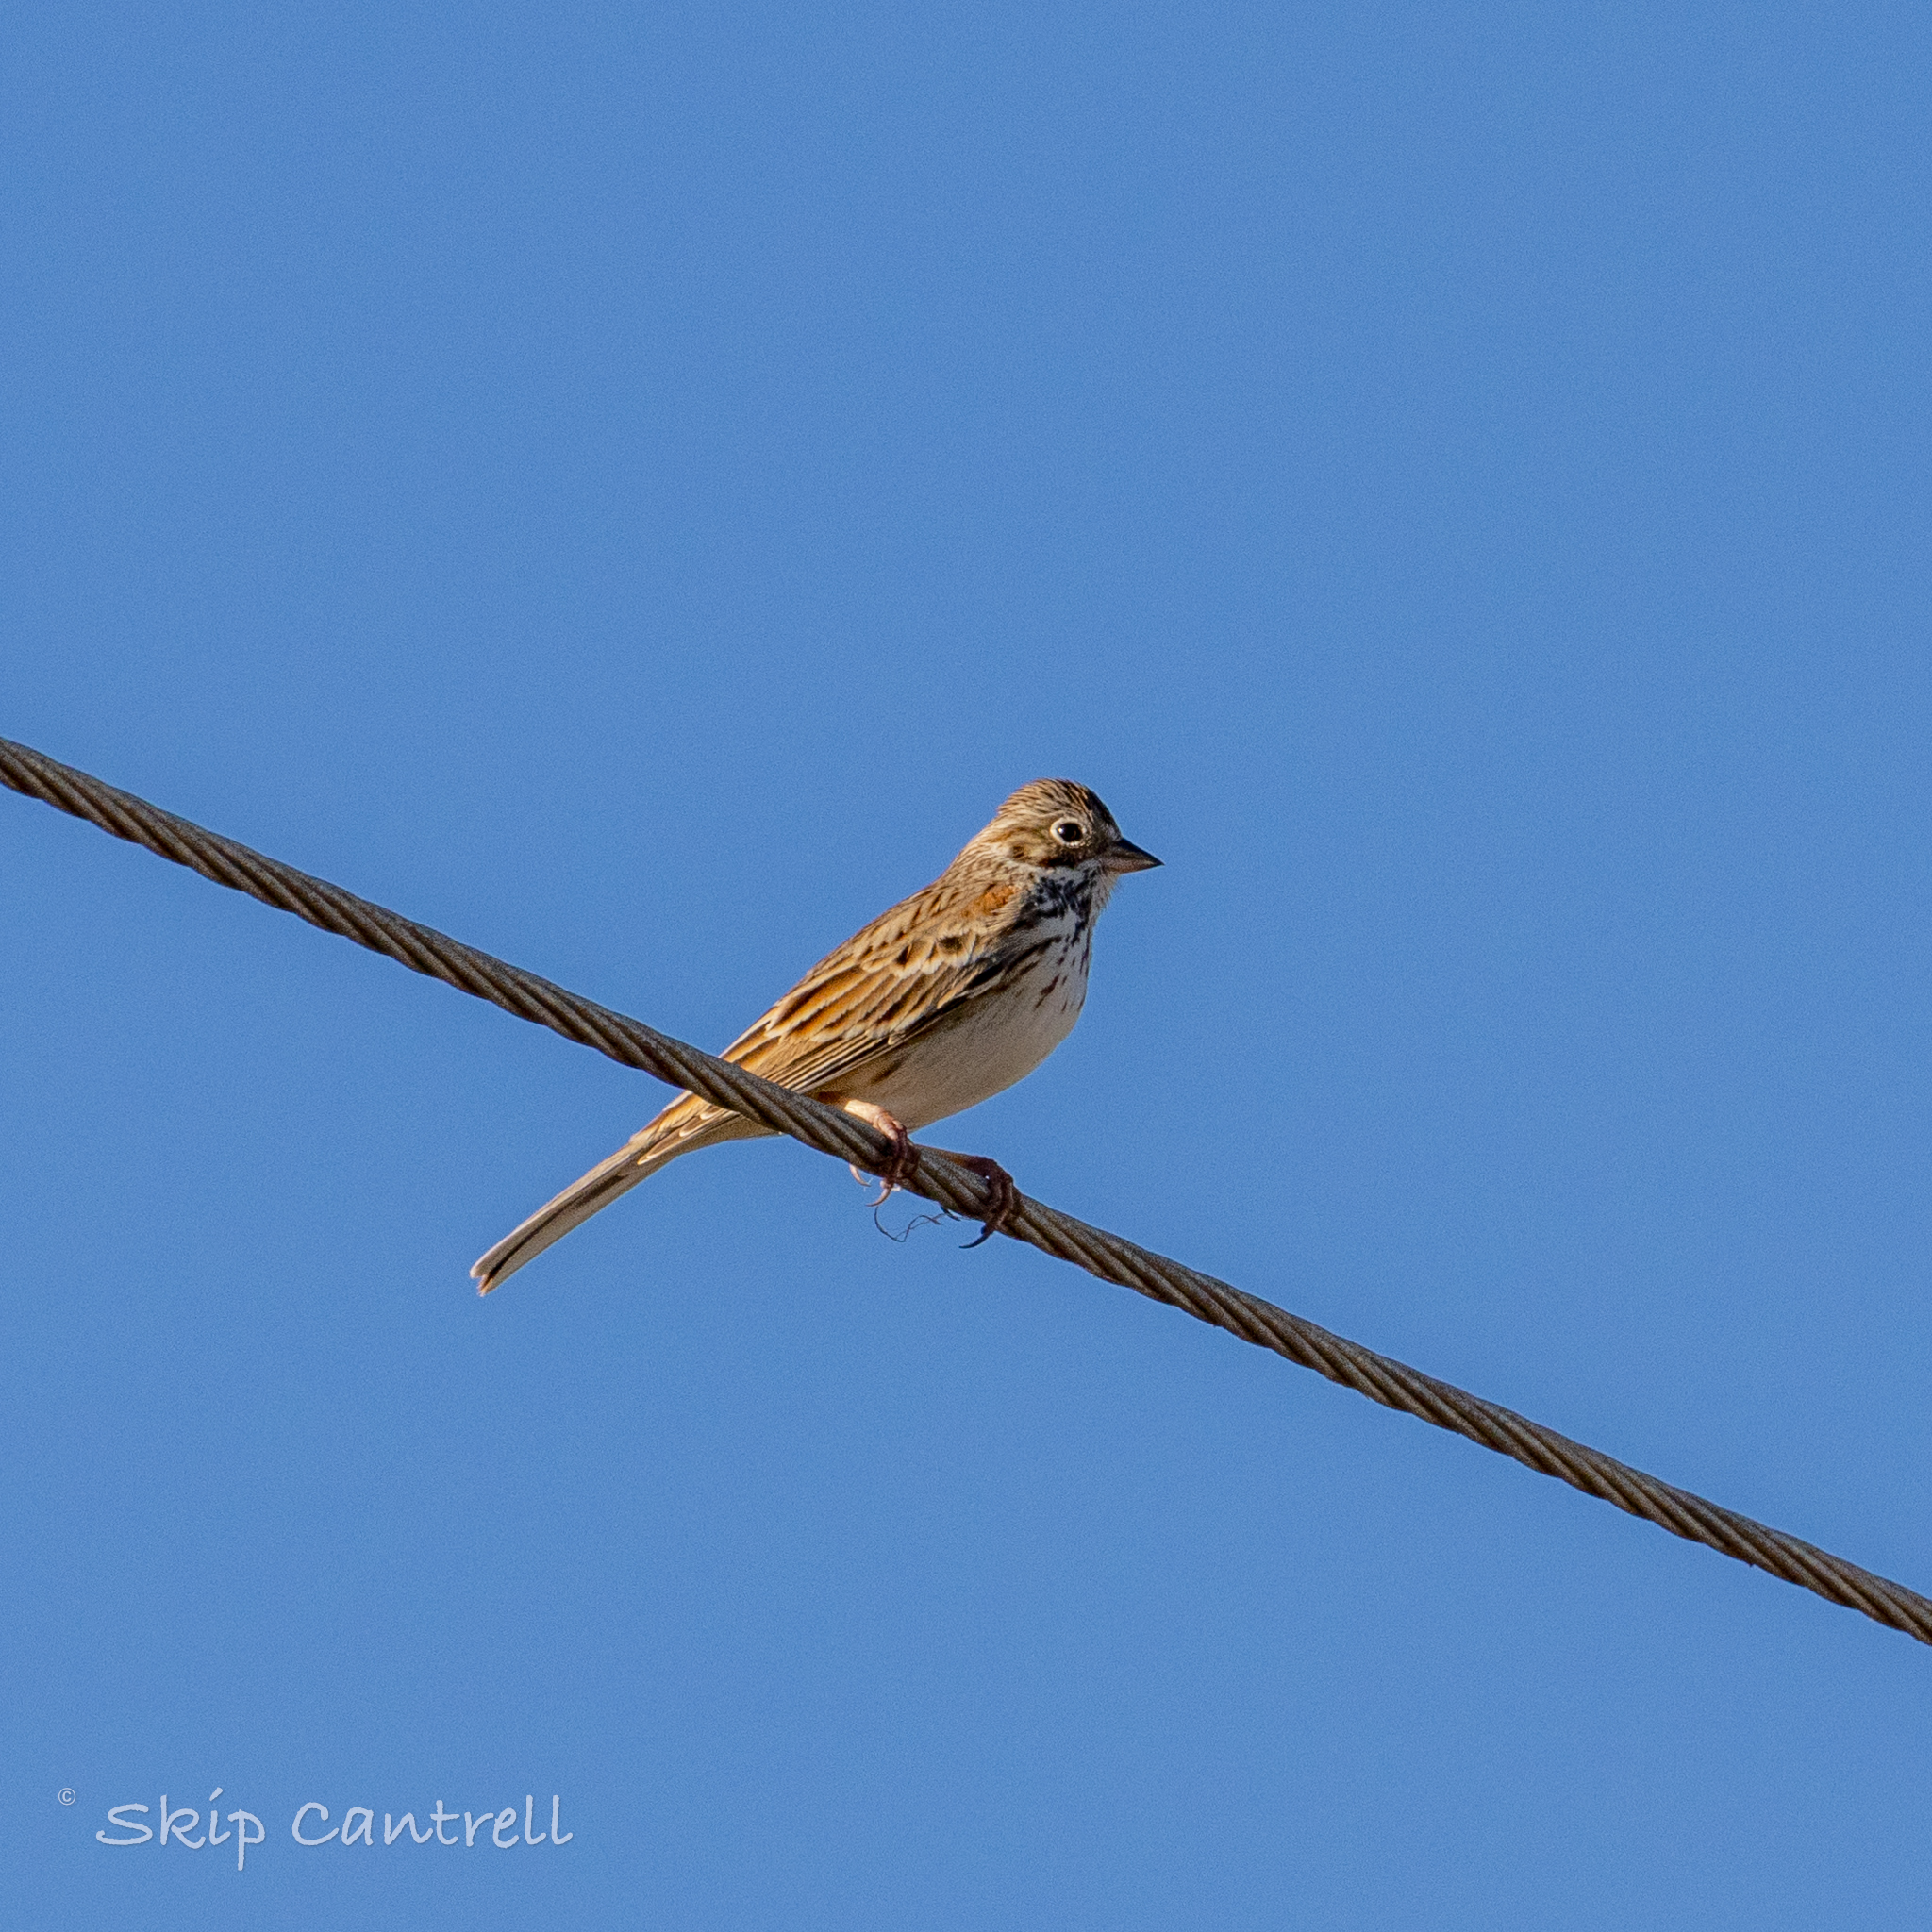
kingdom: Animalia
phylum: Chordata
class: Aves
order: Passeriformes
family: Passerellidae
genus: Pooecetes
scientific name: Pooecetes gramineus
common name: Vesper sparrow
